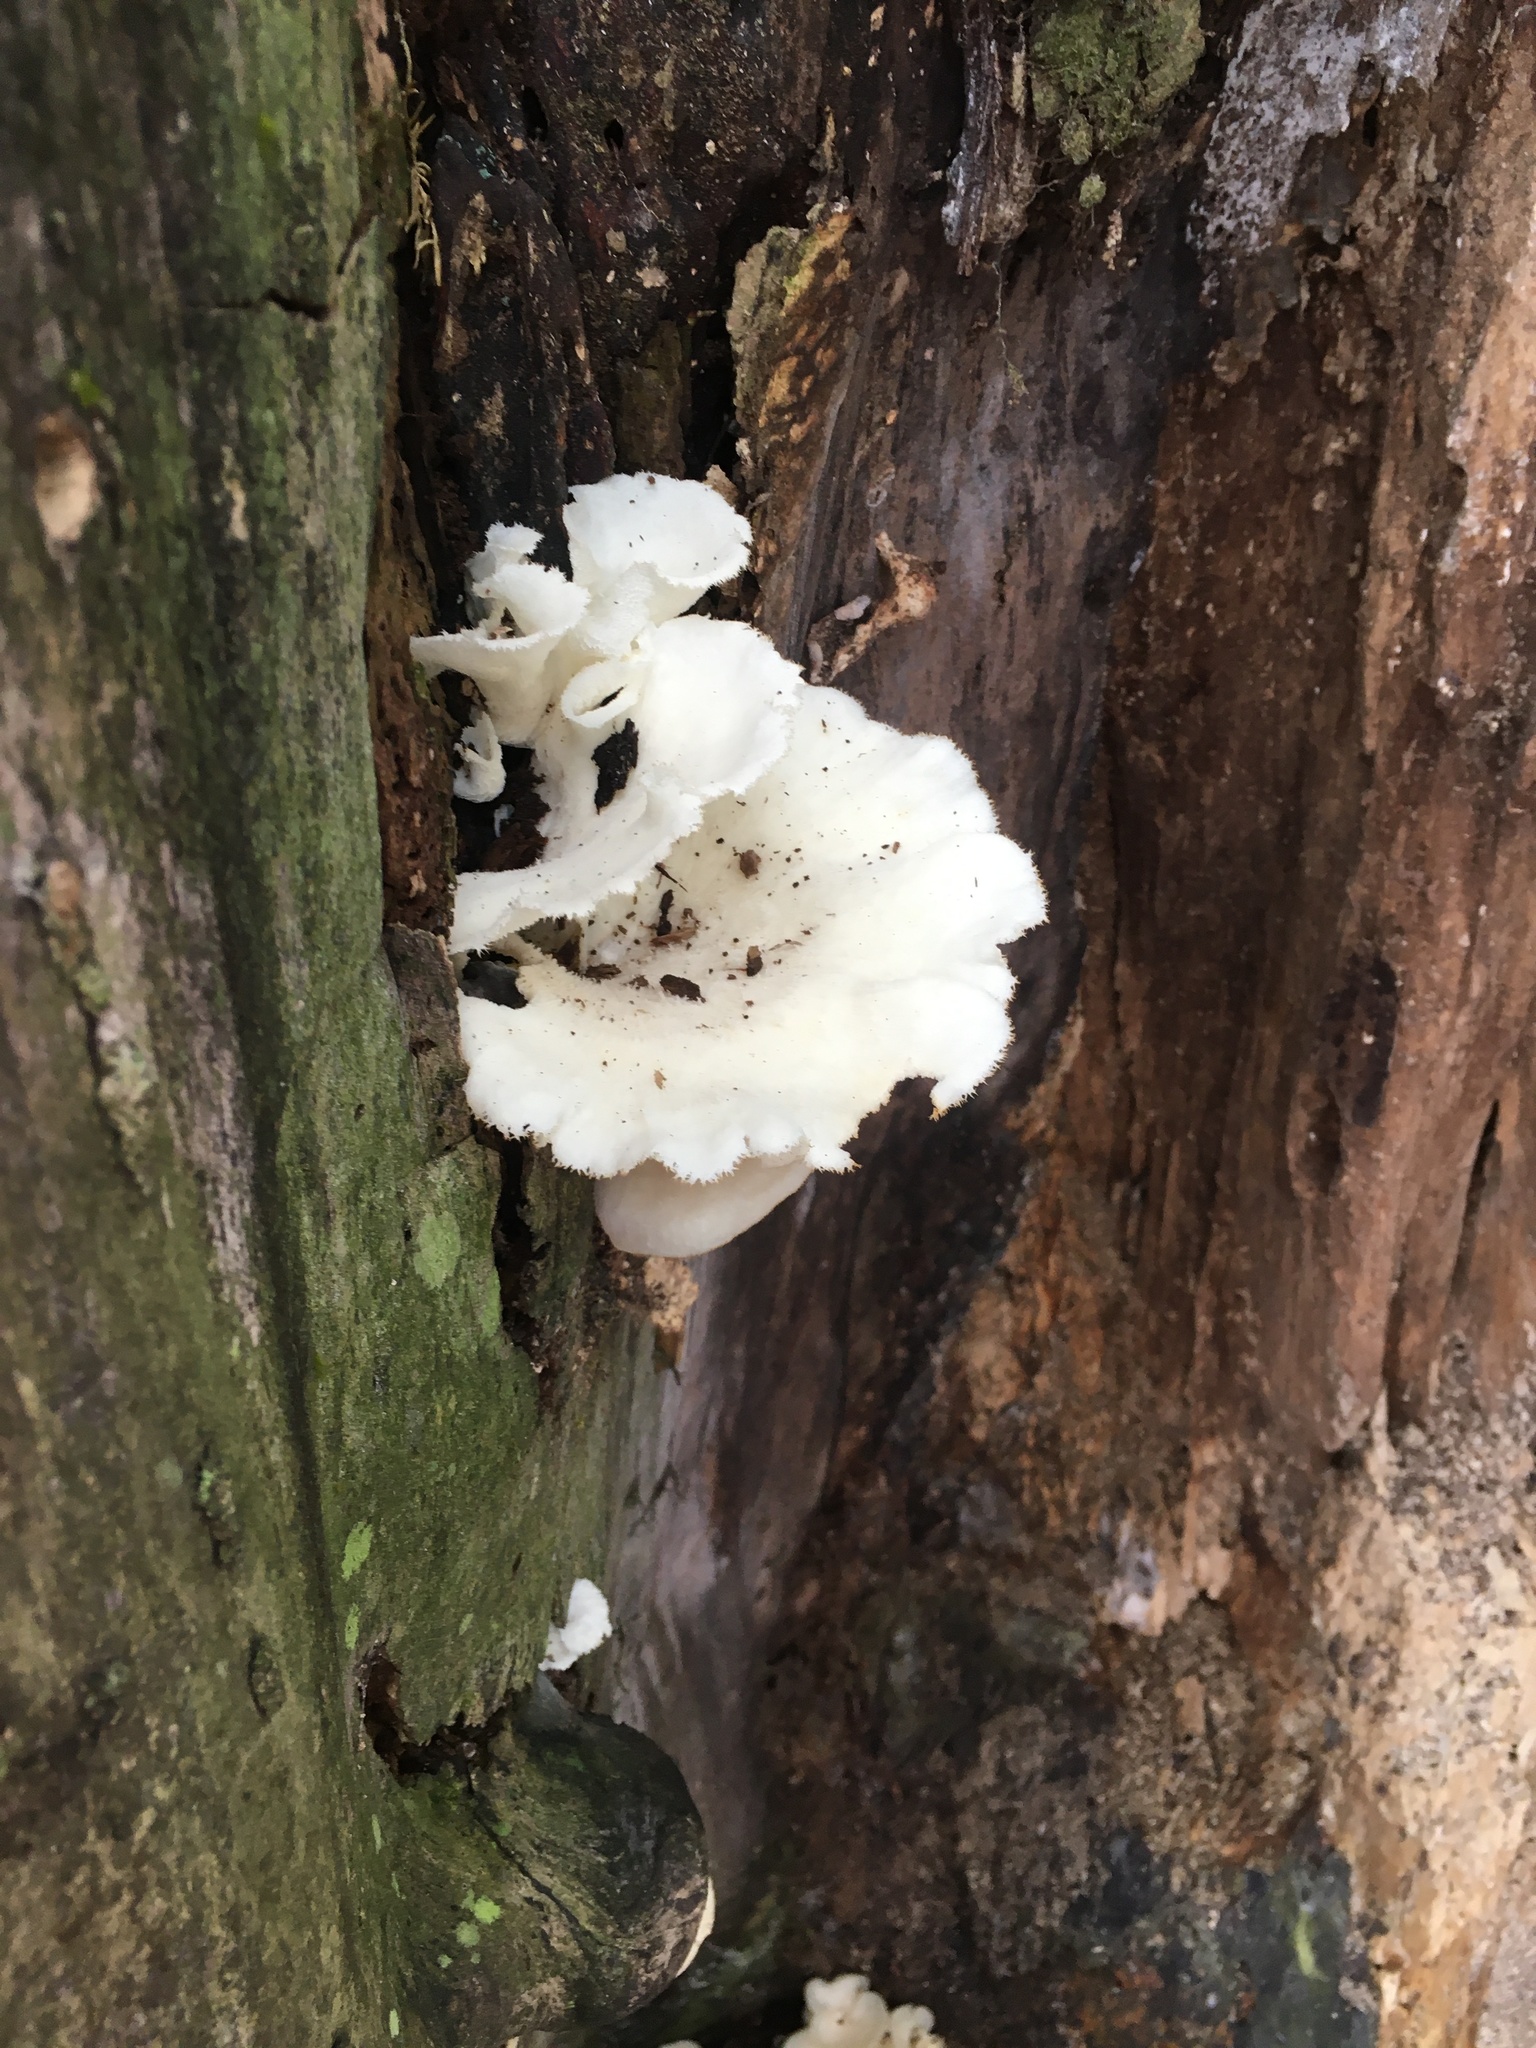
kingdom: Fungi
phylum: Basidiomycota
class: Agaricomycetes
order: Polyporales
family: Polyporaceae
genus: Favolus
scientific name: Favolus tenuiculus
